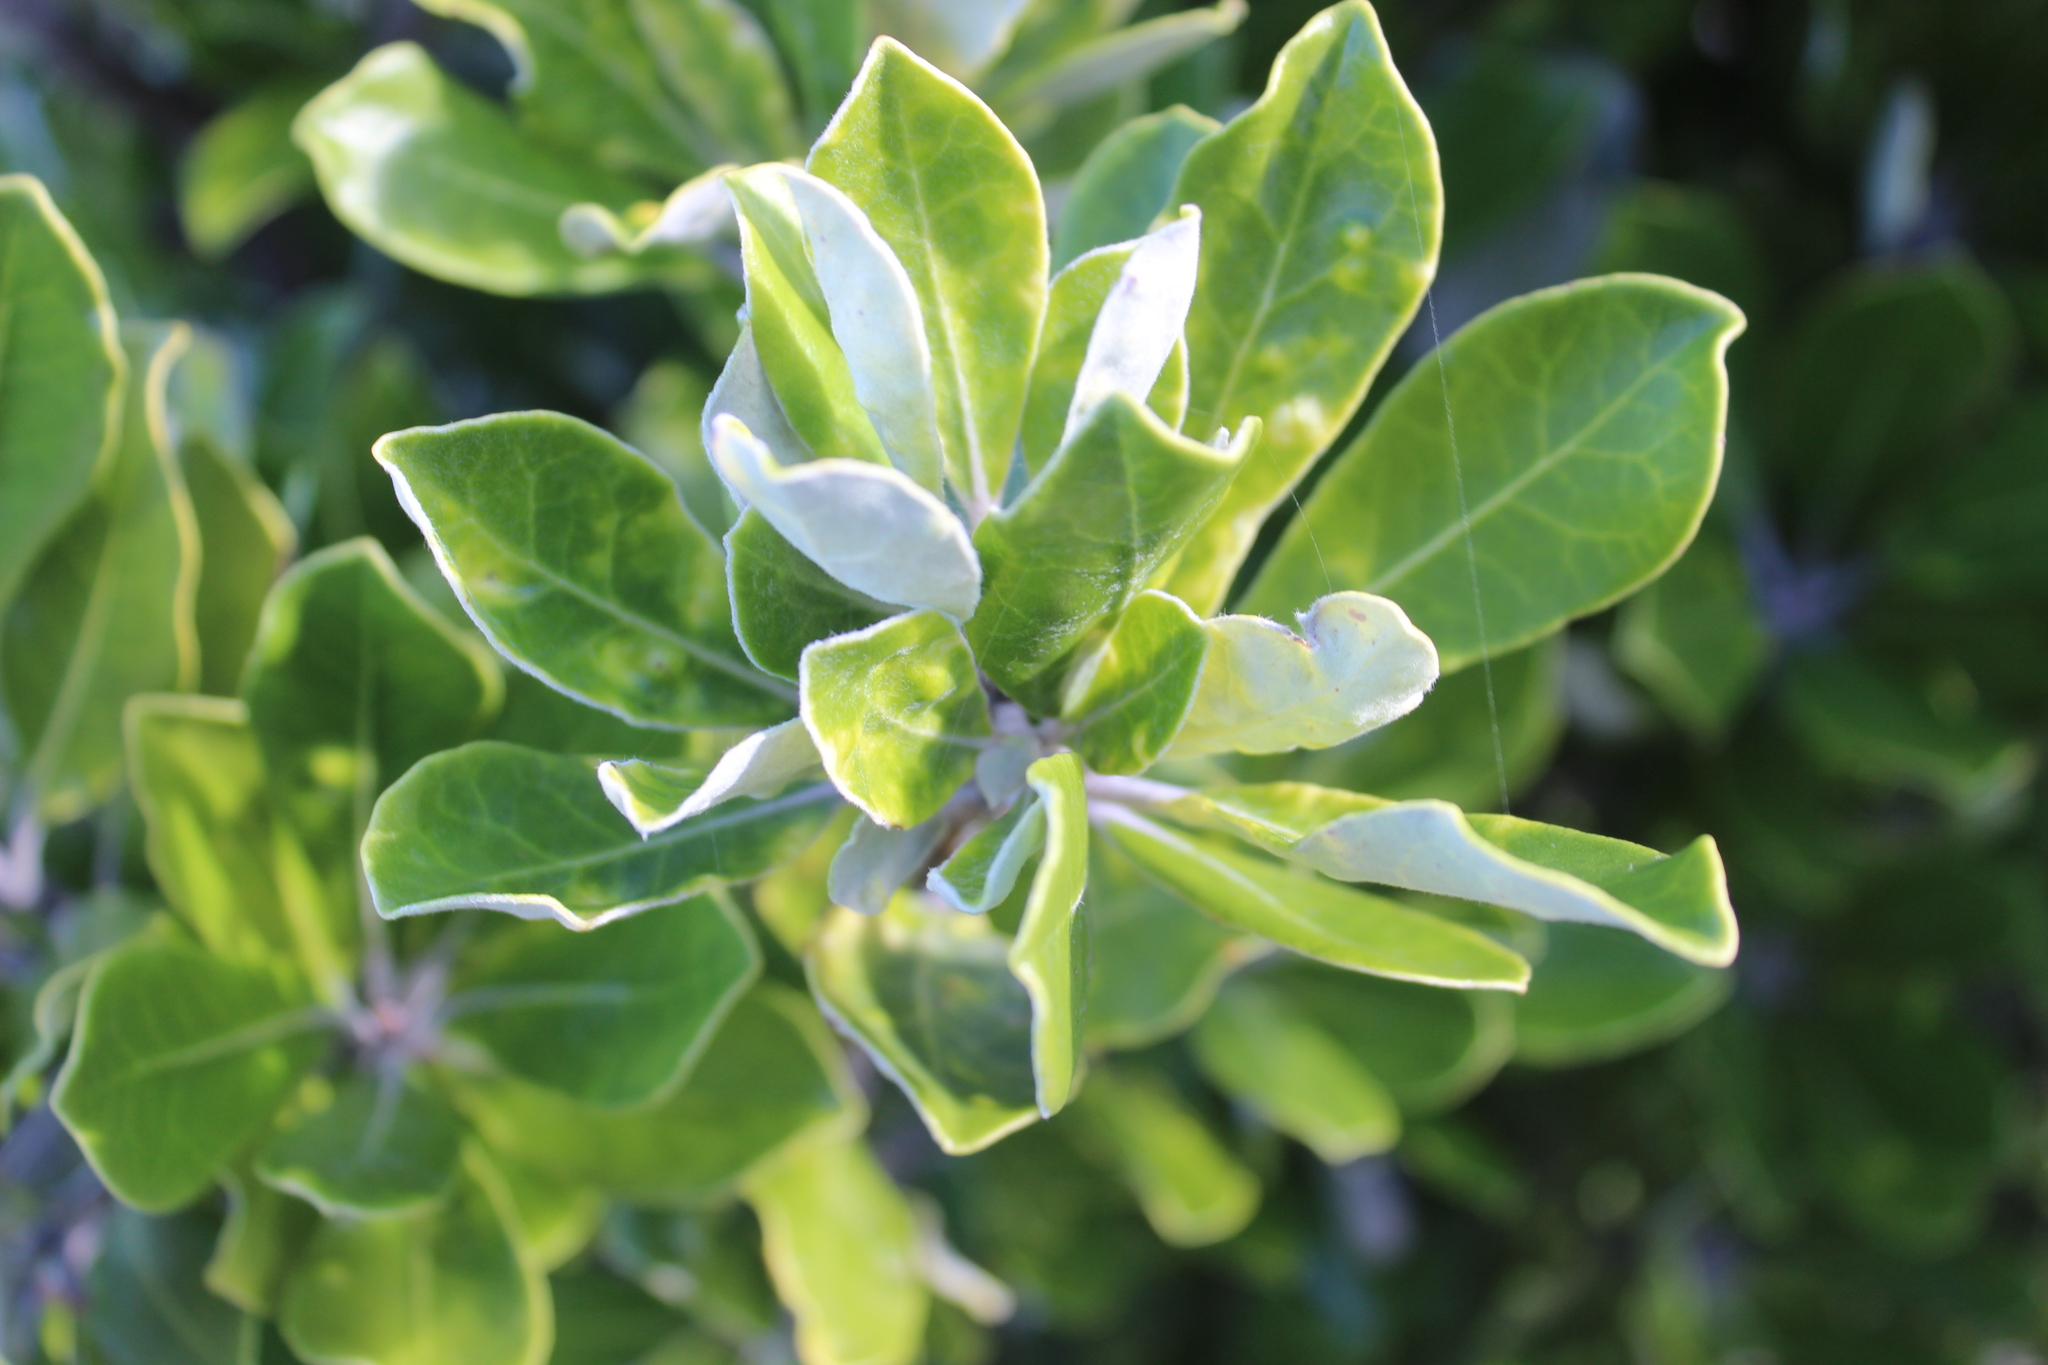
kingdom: Plantae
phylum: Tracheophyta
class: Magnoliopsida
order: Apiales
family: Pittosporaceae
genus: Pittosporum
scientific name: Pittosporum crassifolium
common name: Karo
